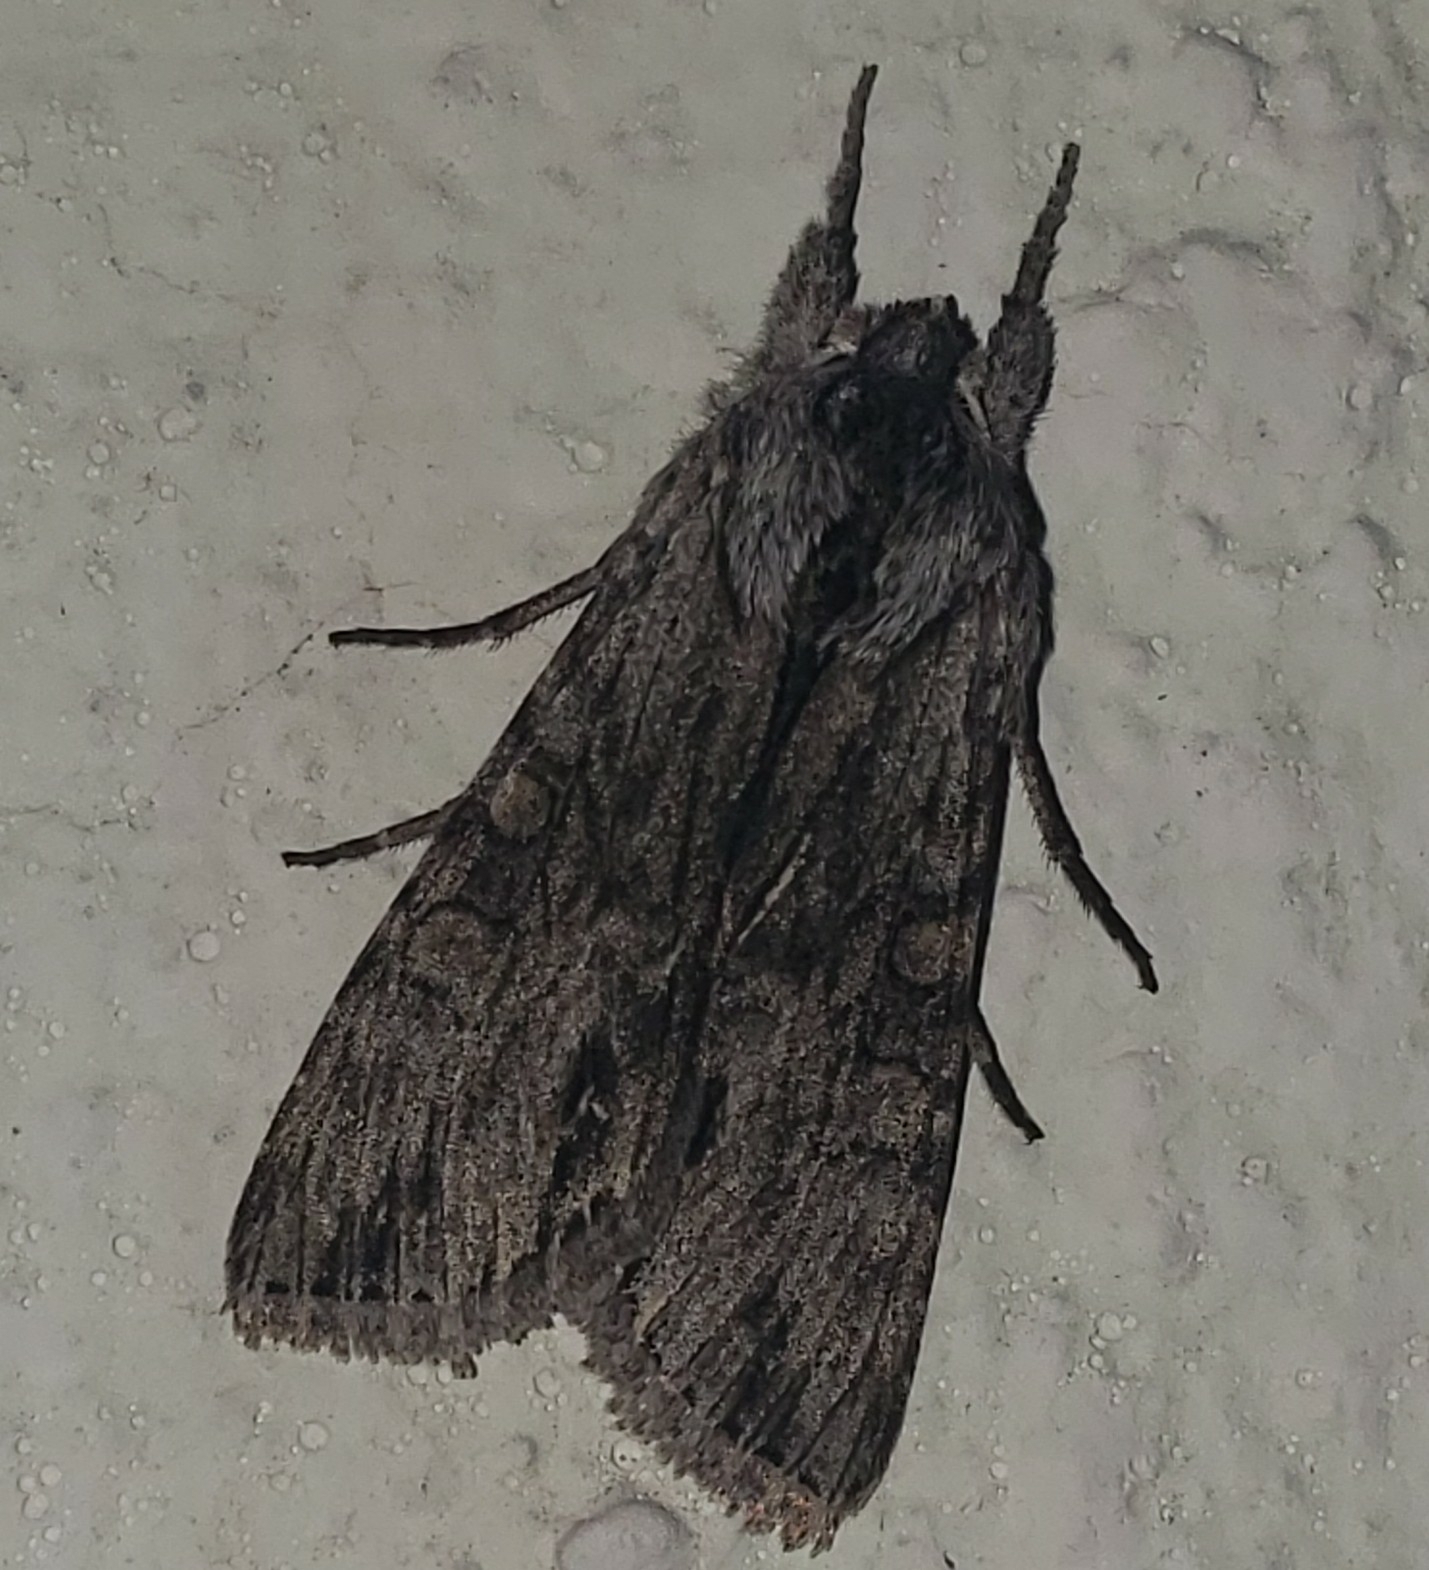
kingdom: Animalia
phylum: Arthropoda
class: Insecta
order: Lepidoptera
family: Noctuidae
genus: Peridroma
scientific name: Peridroma saucia
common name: Pearly underwing
